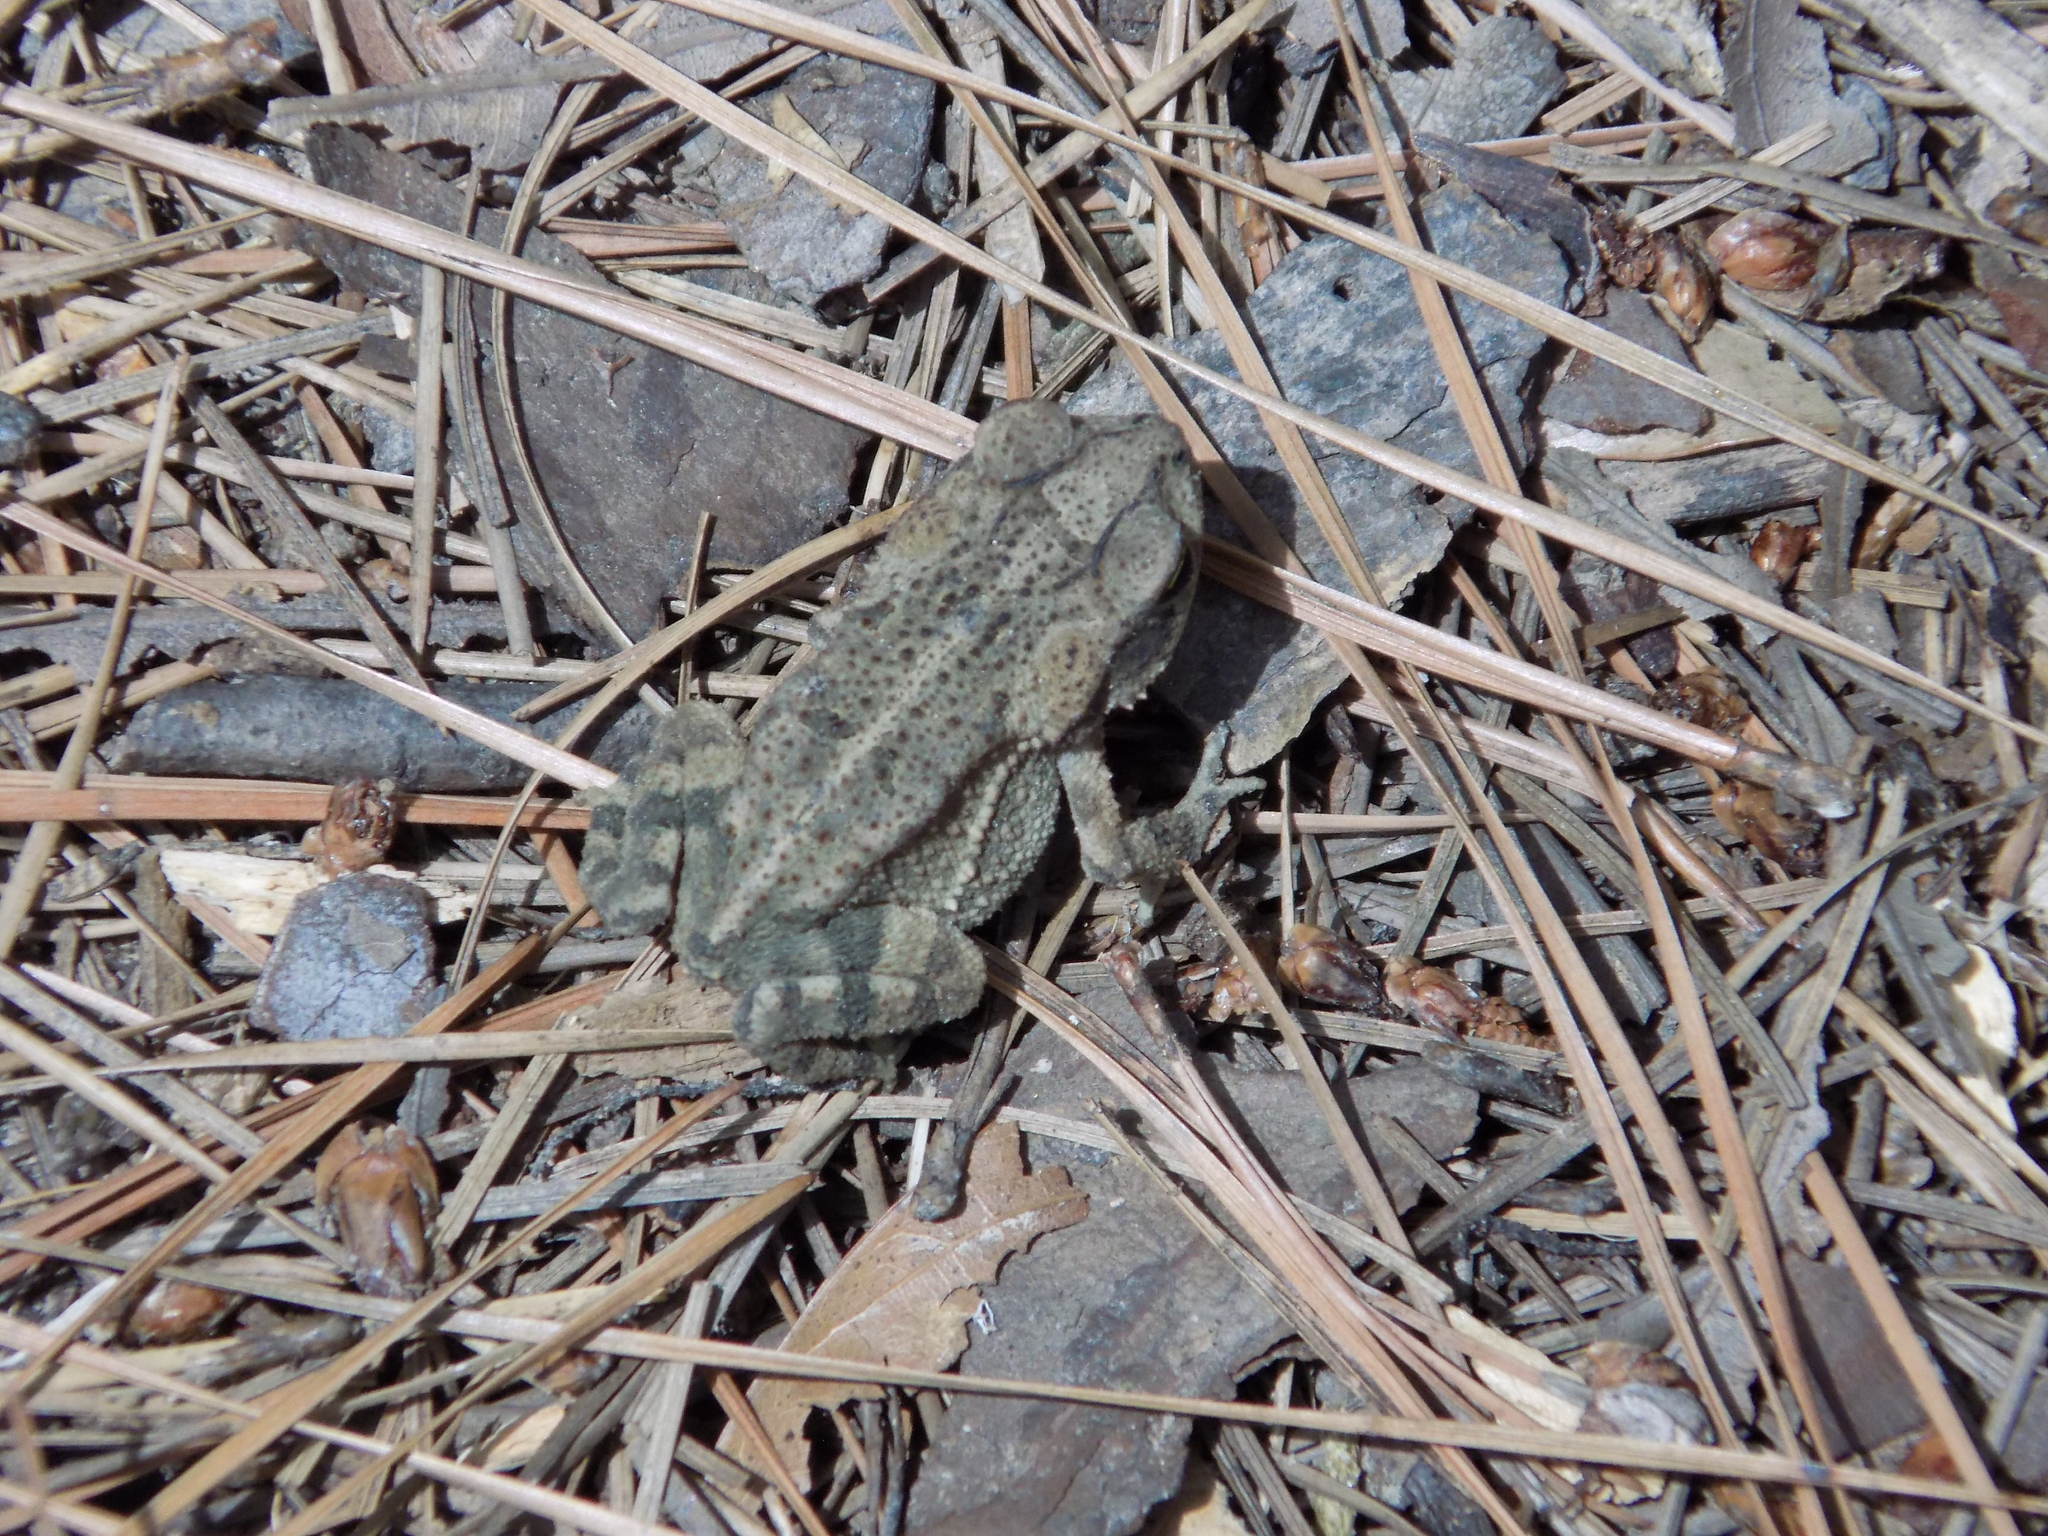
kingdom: Animalia
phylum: Chordata
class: Amphibia
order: Anura
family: Bufonidae
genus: Incilius
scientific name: Incilius nebulifer
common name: Gulf coast toad
